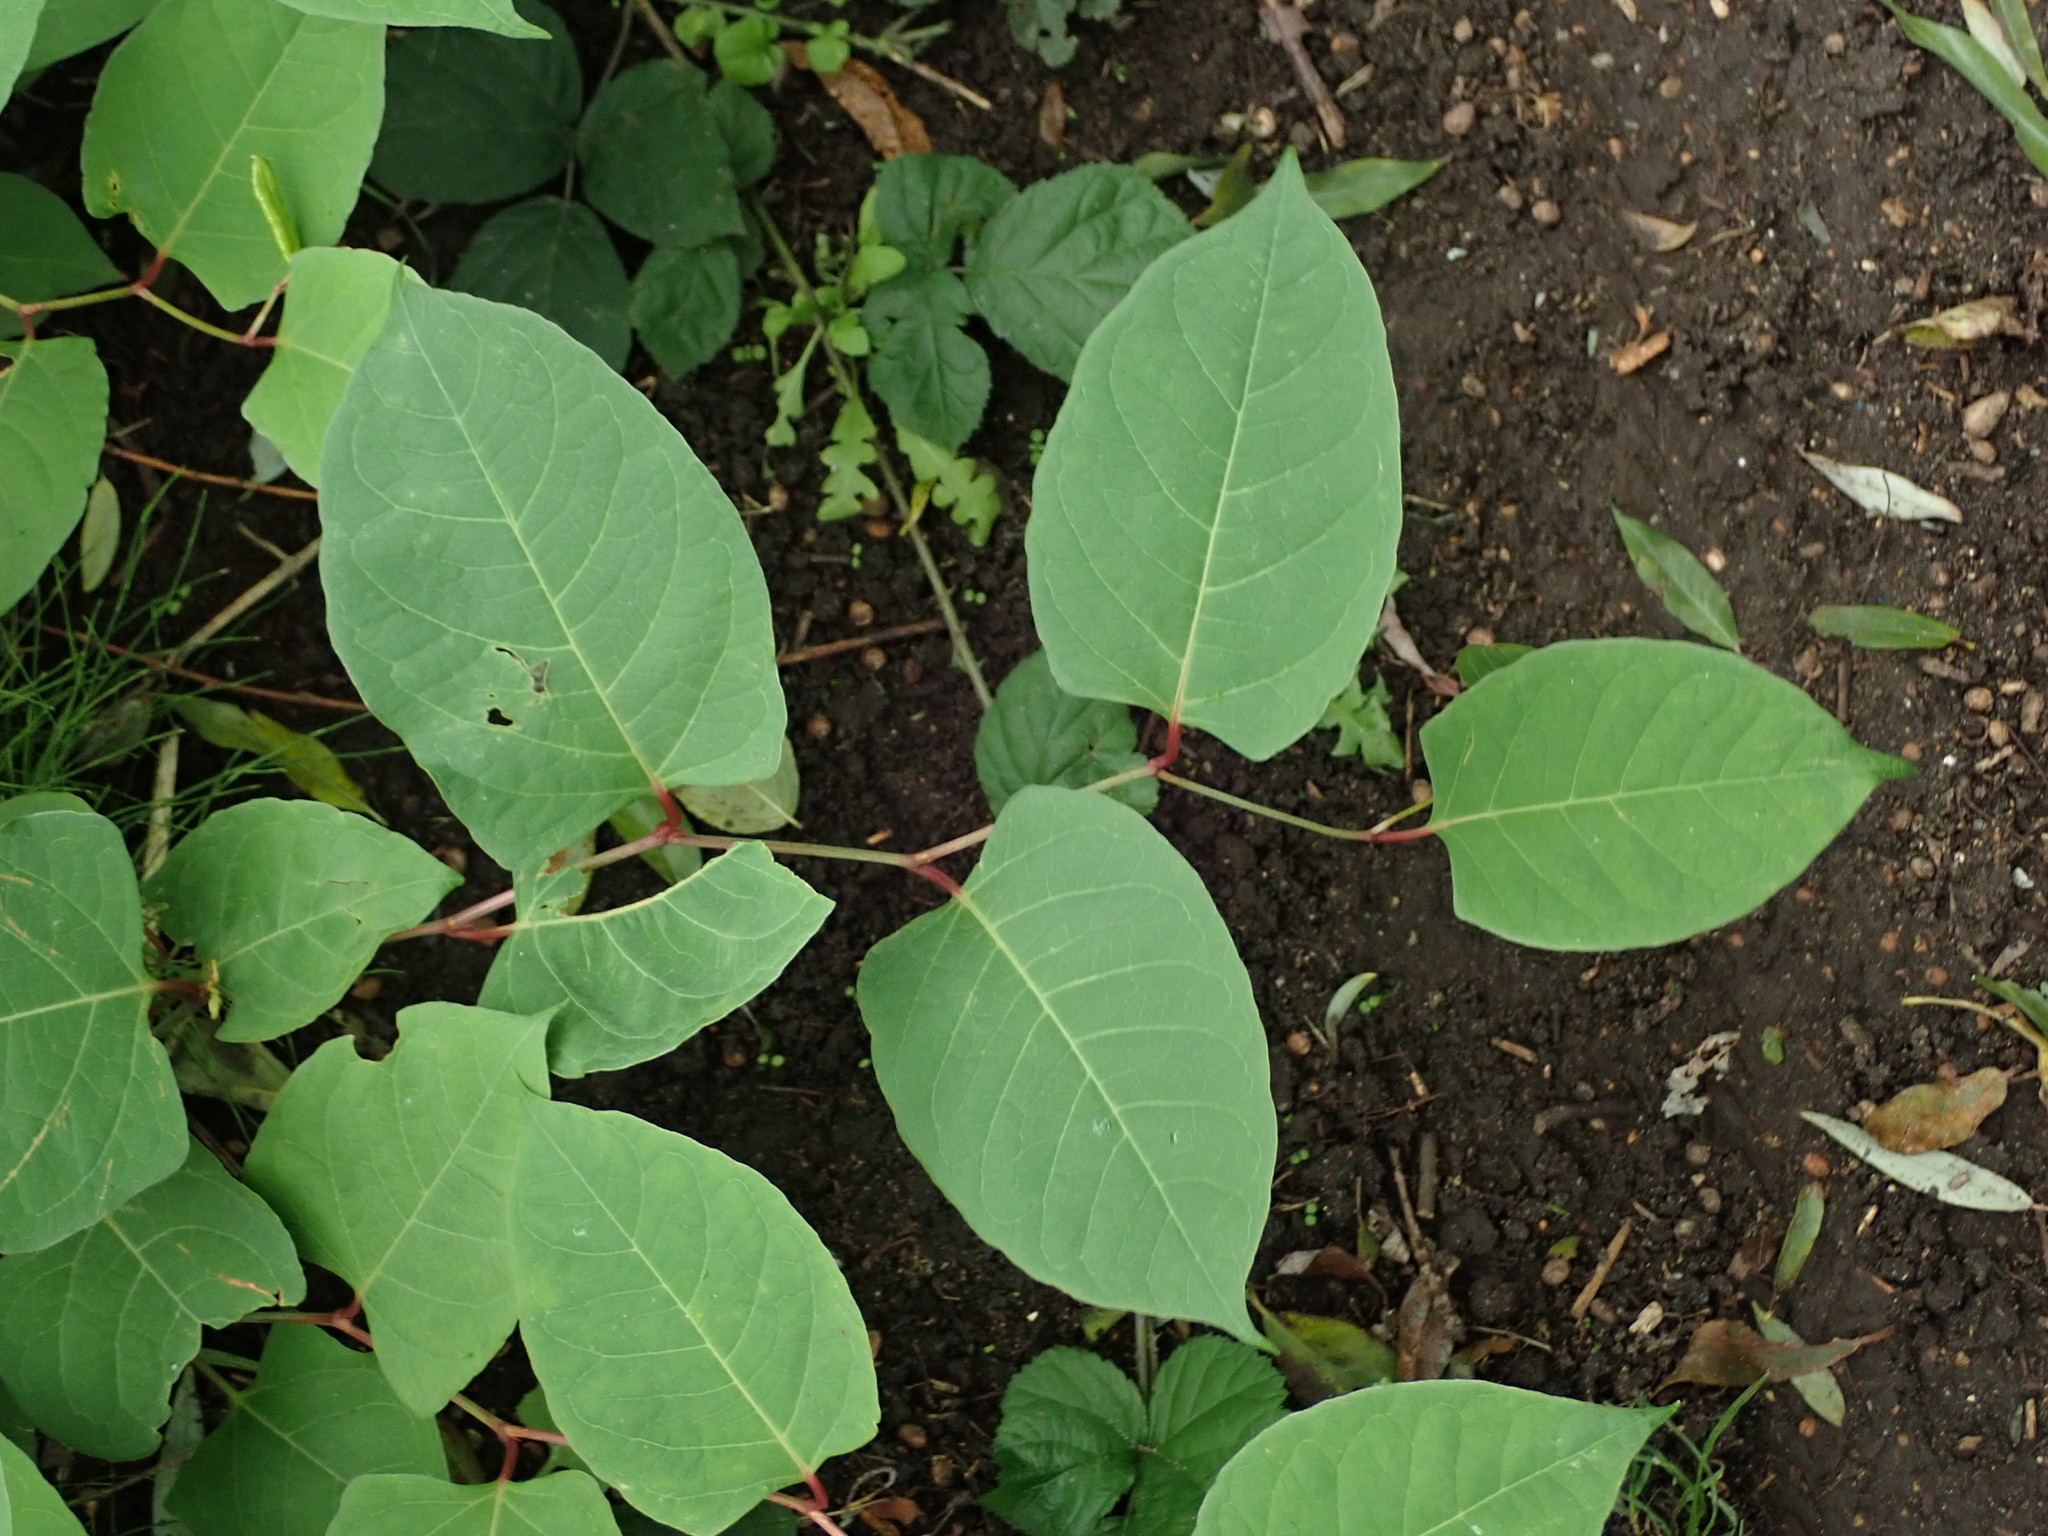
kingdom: Plantae
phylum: Tracheophyta
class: Magnoliopsida
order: Caryophyllales
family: Polygonaceae
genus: Reynoutria
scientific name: Reynoutria japonica
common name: Japanese knotweed
